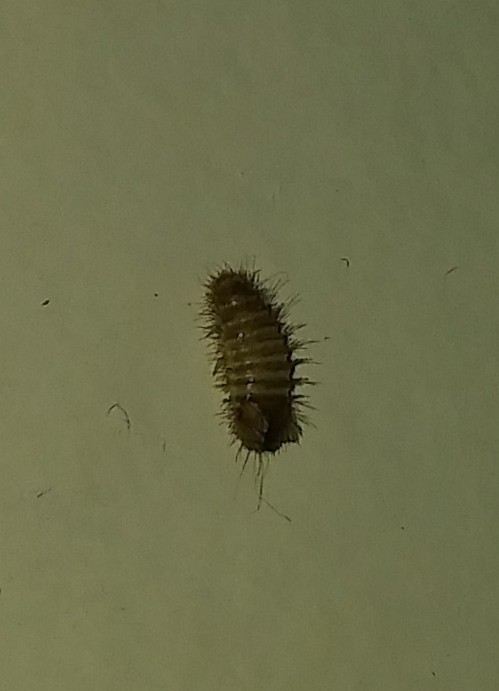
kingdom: Animalia
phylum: Arthropoda
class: Insecta
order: Coleoptera
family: Dermestidae
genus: Anthrenus
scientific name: Anthrenus verbasci
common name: Varied carpet beetle
